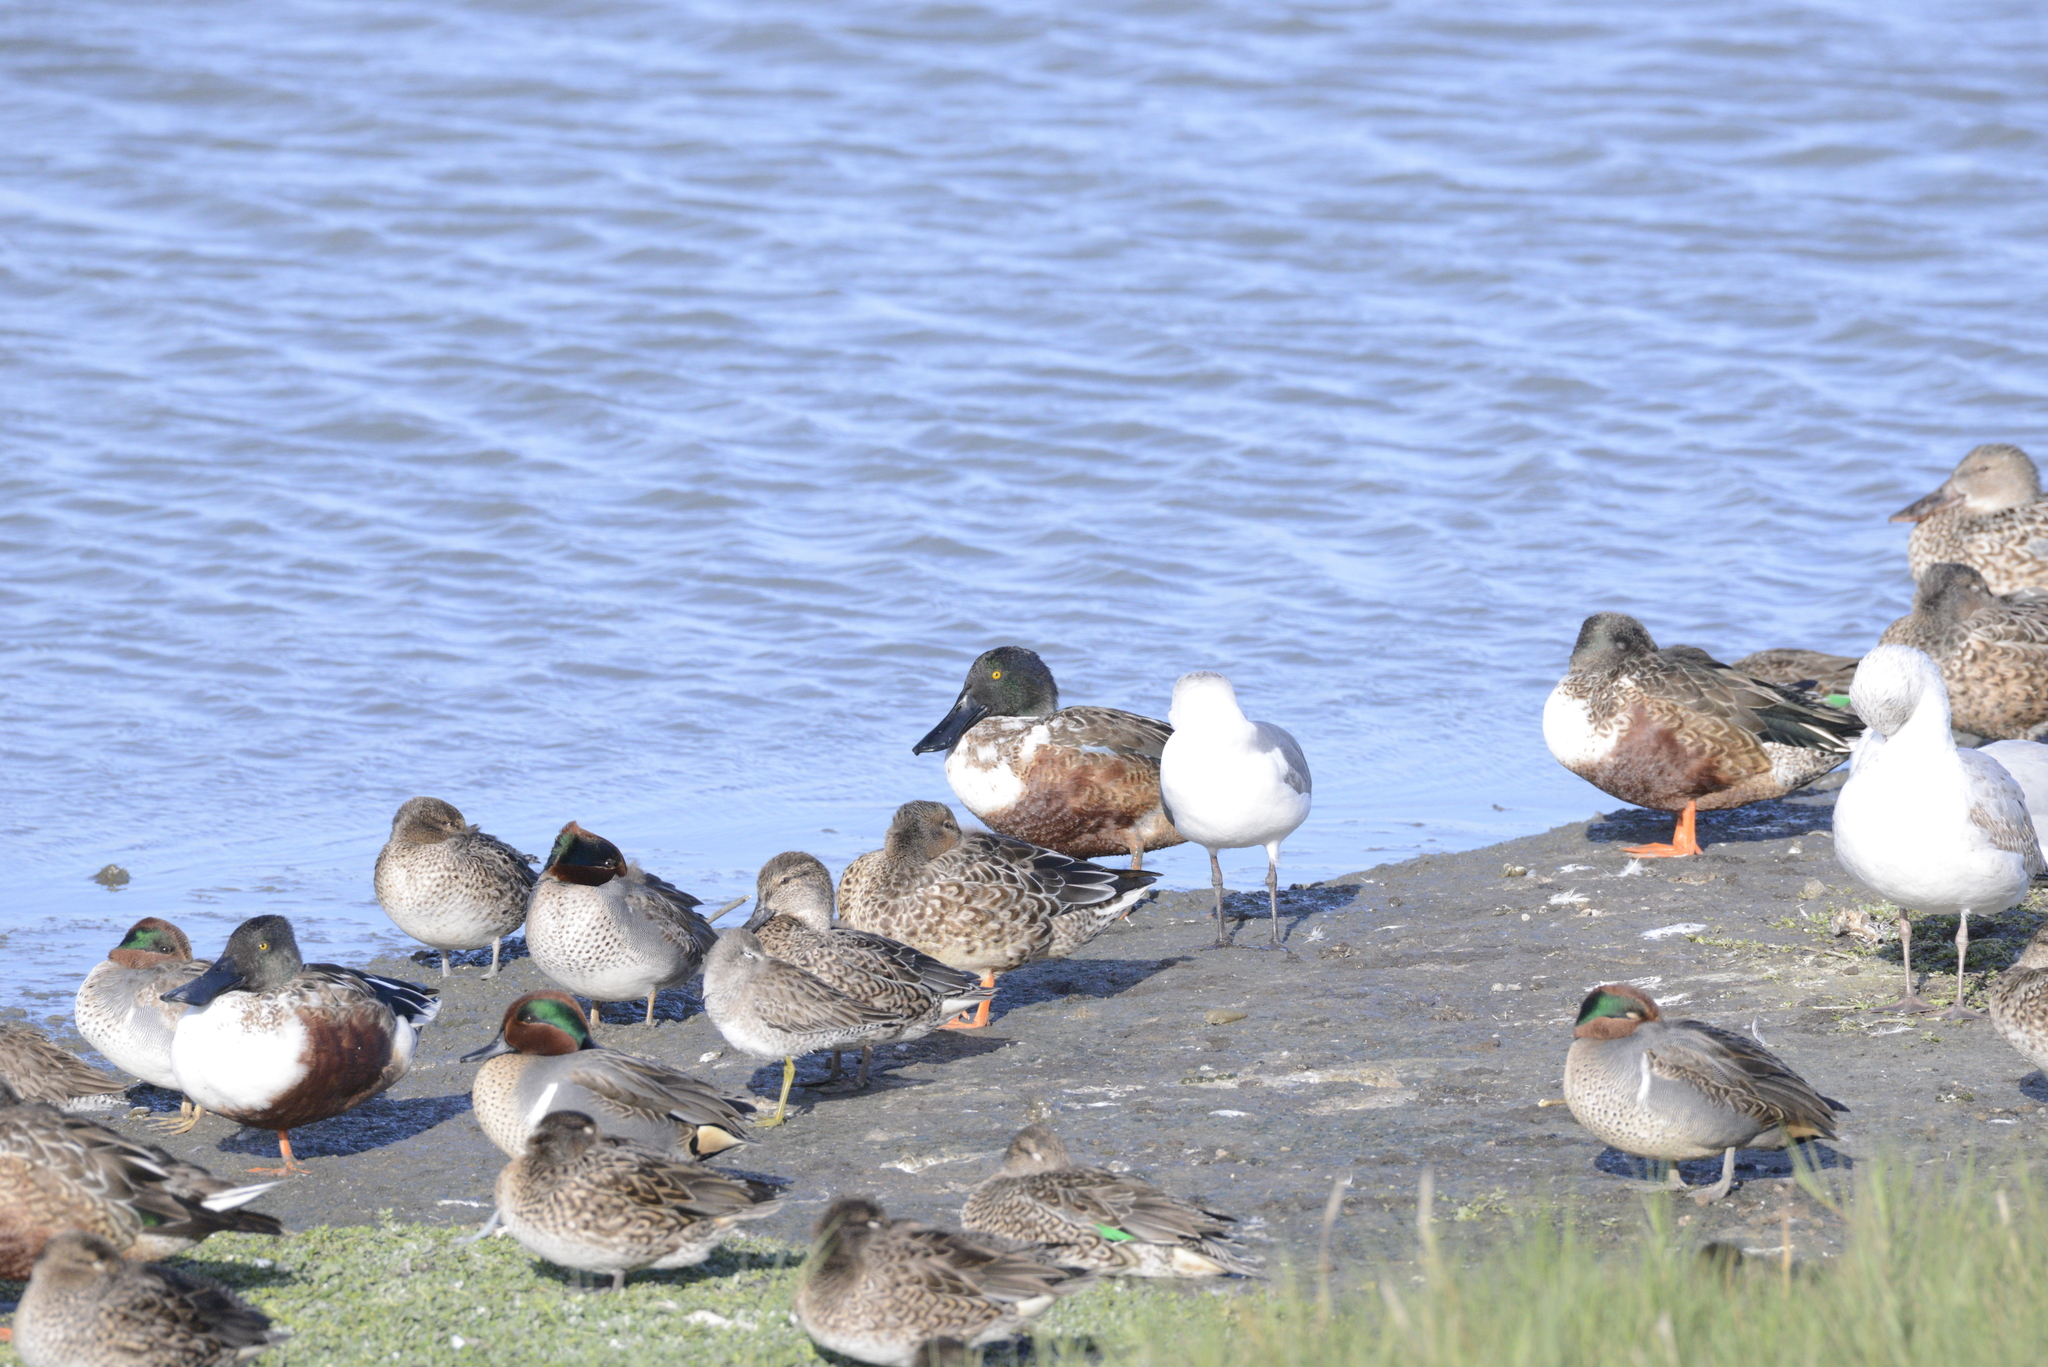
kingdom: Animalia
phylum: Chordata
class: Aves
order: Anseriformes
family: Anatidae
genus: Spatula
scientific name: Spatula clypeata
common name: Northern shoveler
